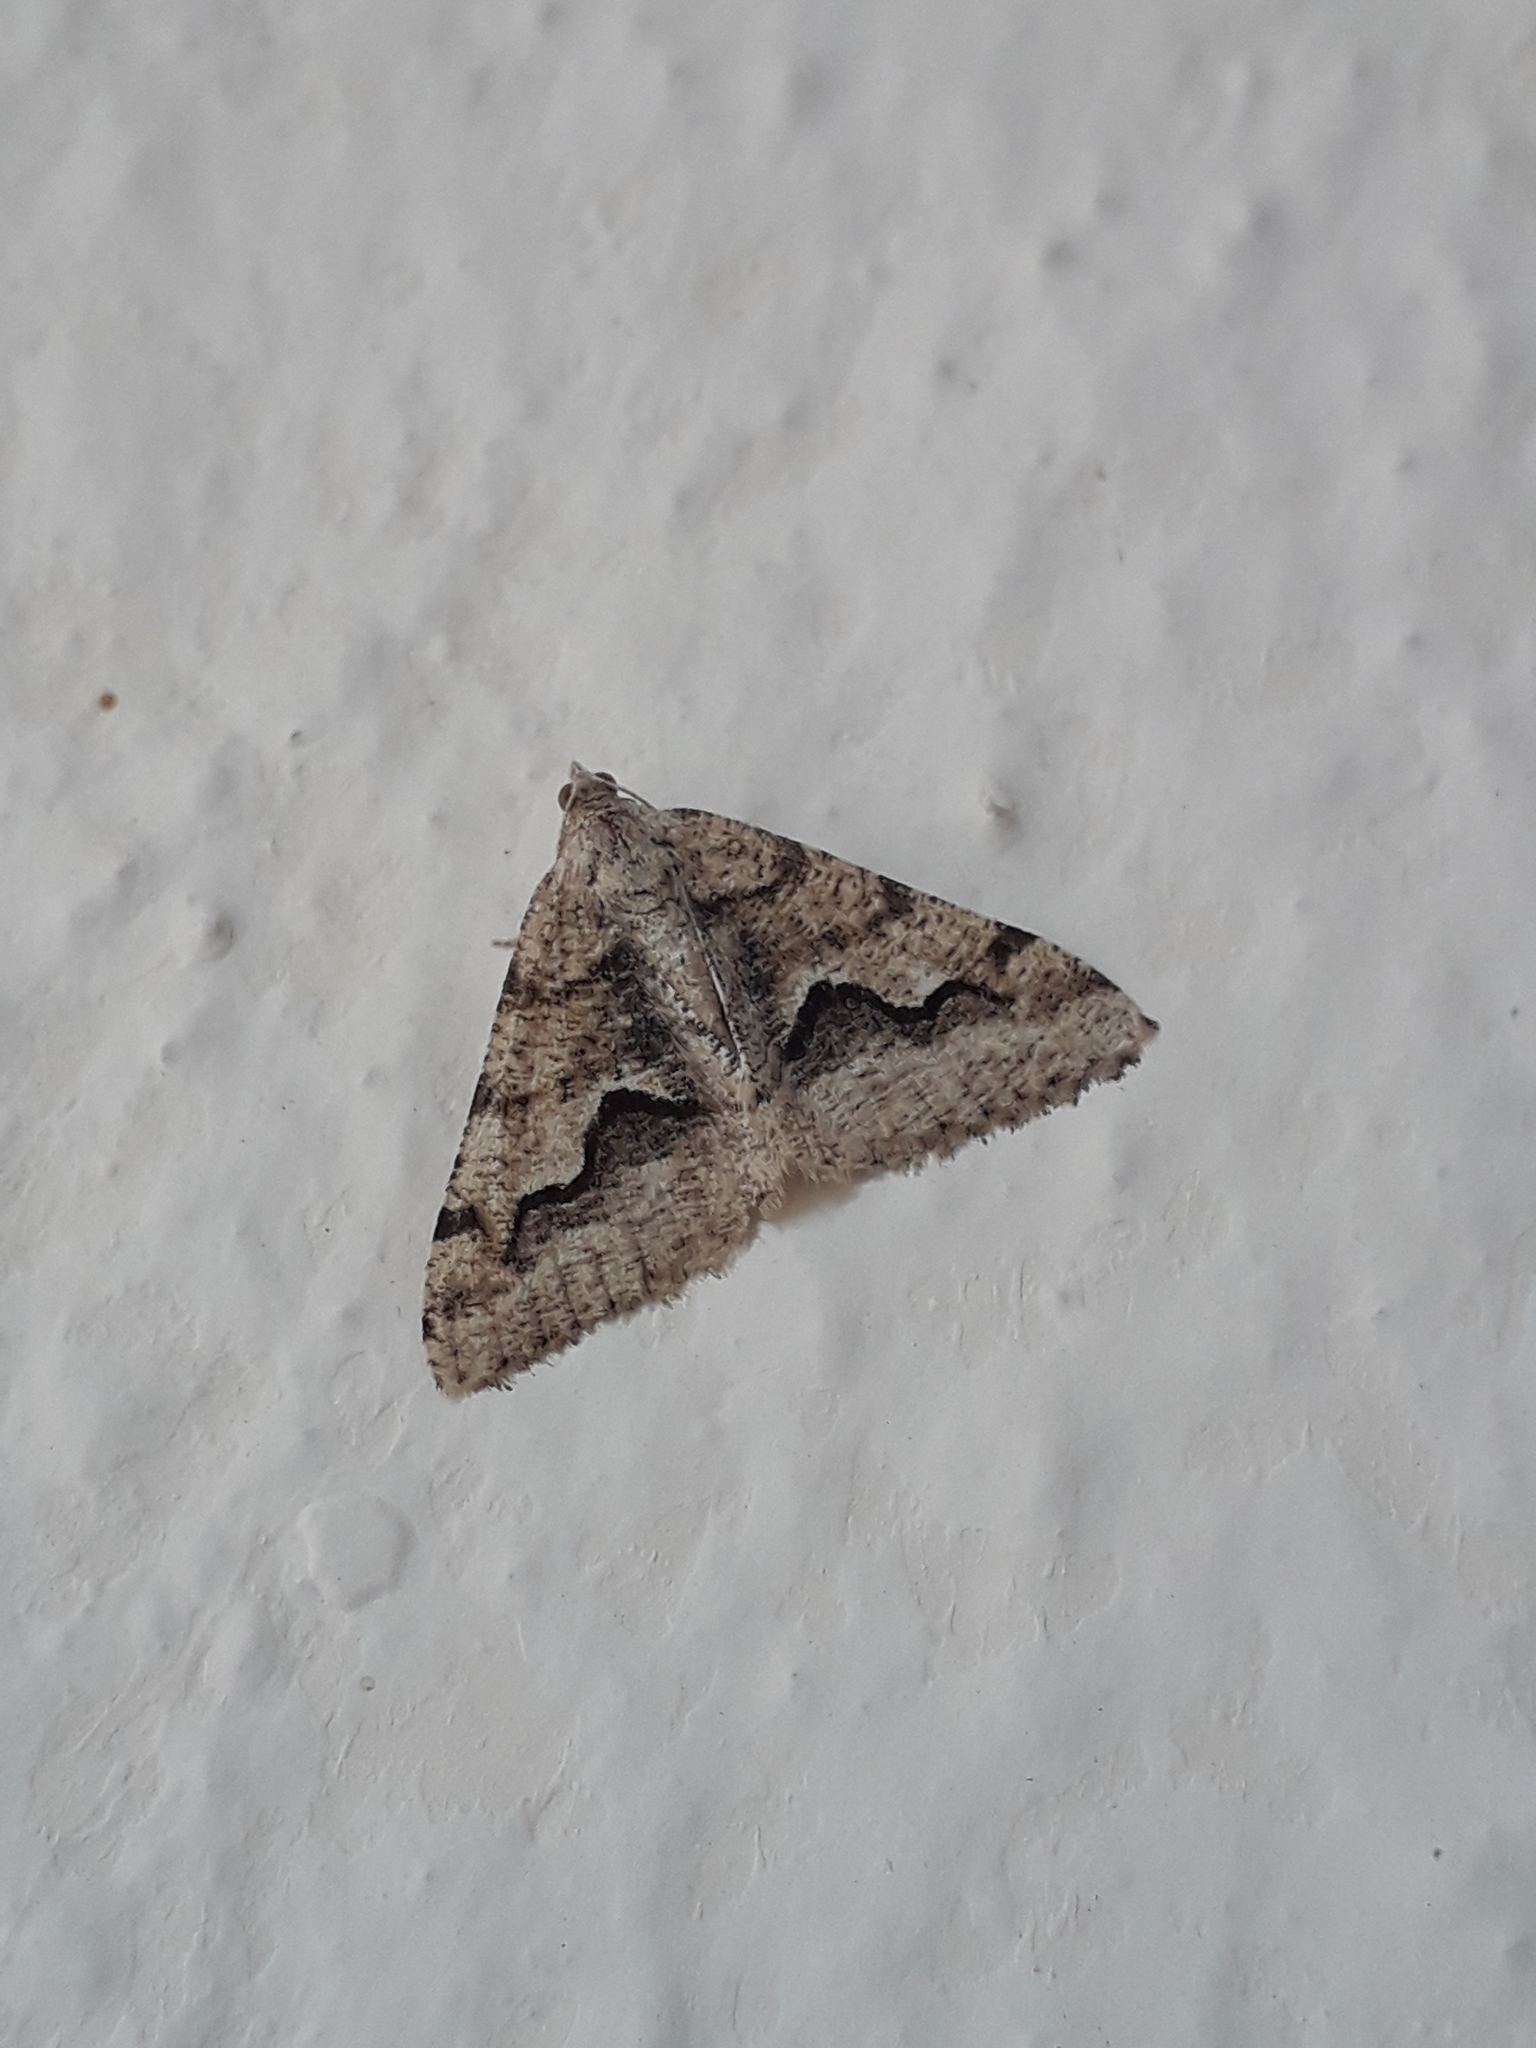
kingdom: Animalia
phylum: Arthropoda
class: Insecta
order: Lepidoptera
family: Geometridae
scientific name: Geometridae
